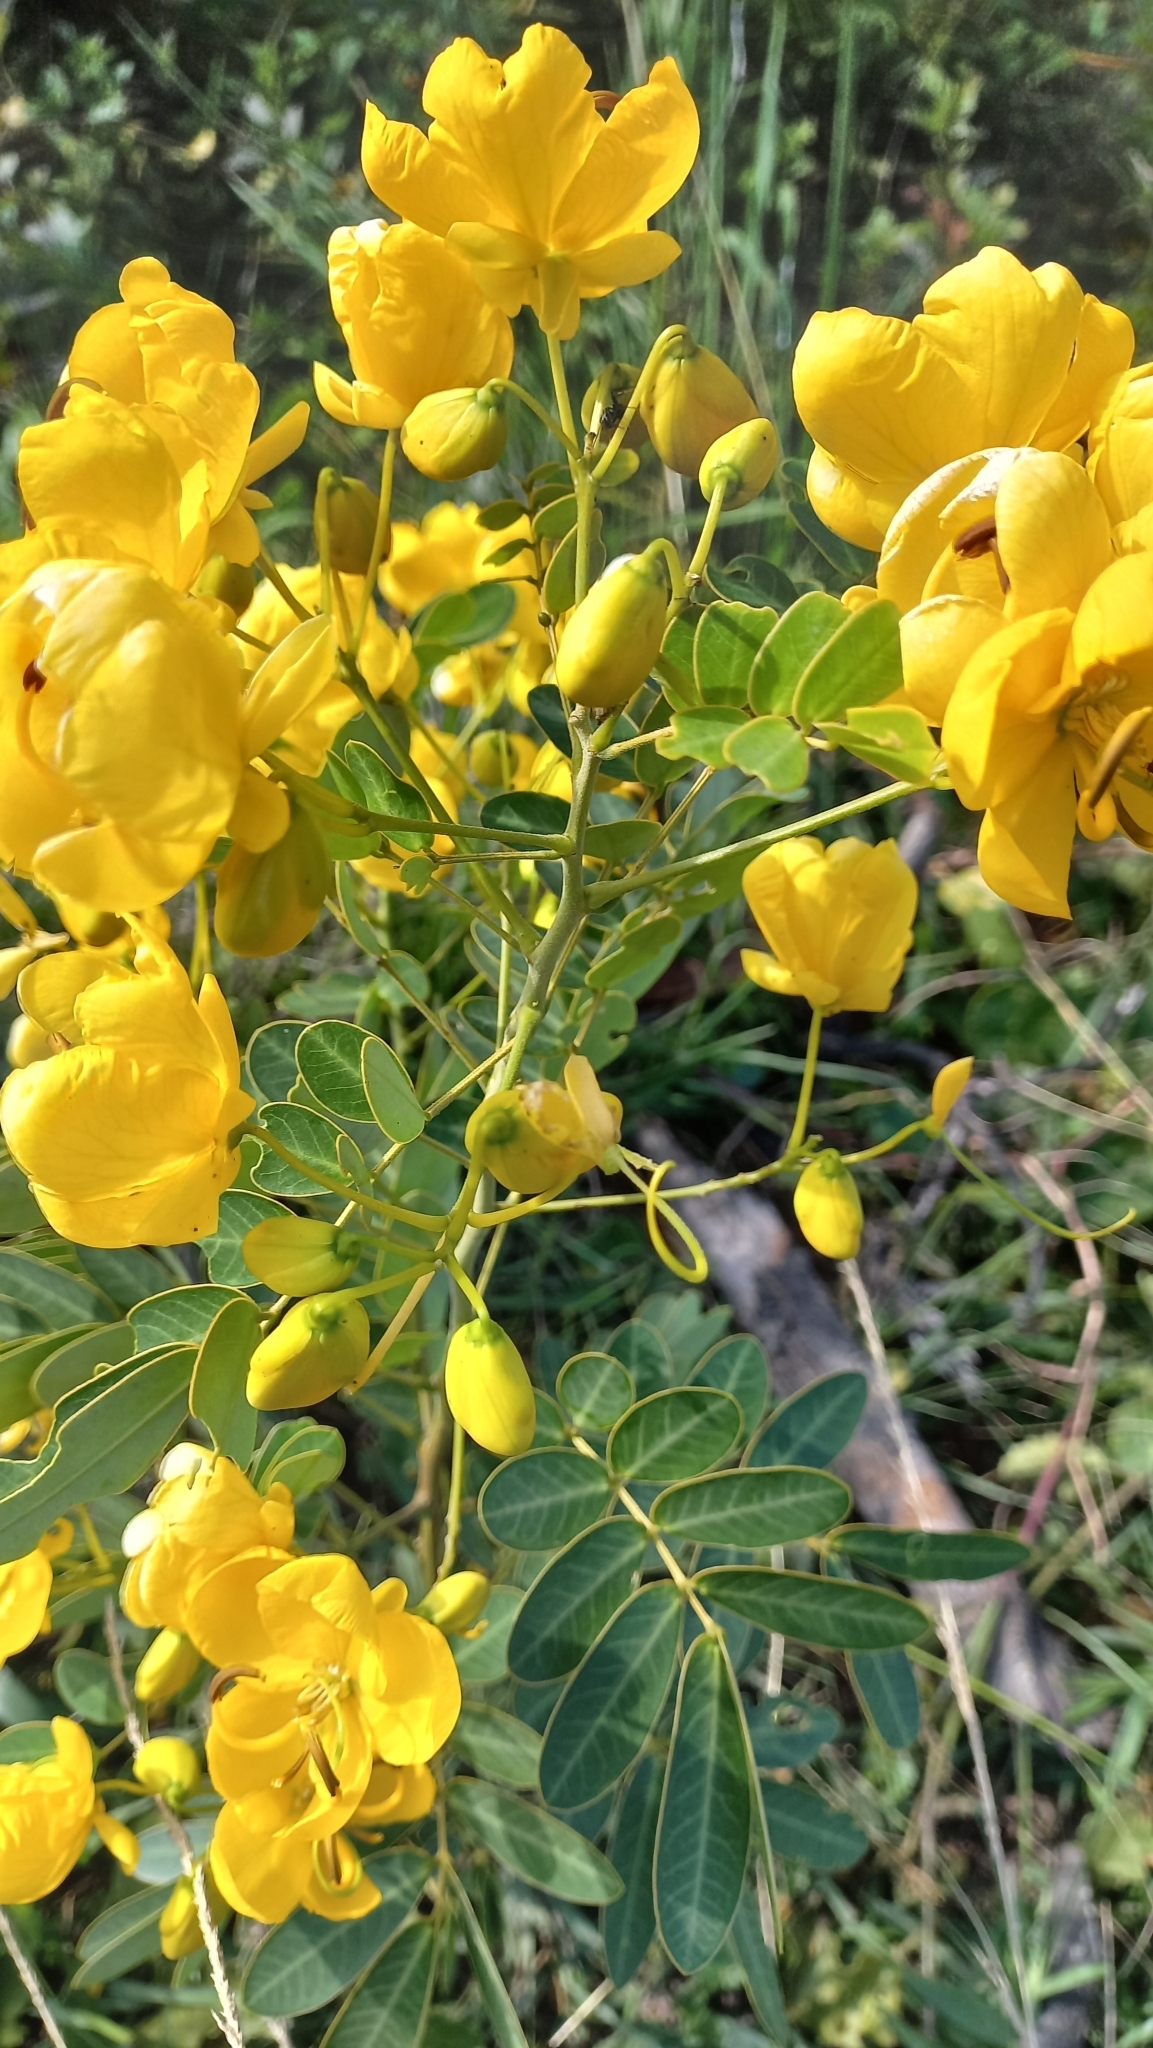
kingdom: Plantae
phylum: Tracheophyta
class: Magnoliopsida
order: Fabales
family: Fabaceae
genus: Senna
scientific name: Senna pendula
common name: Easter cassia
